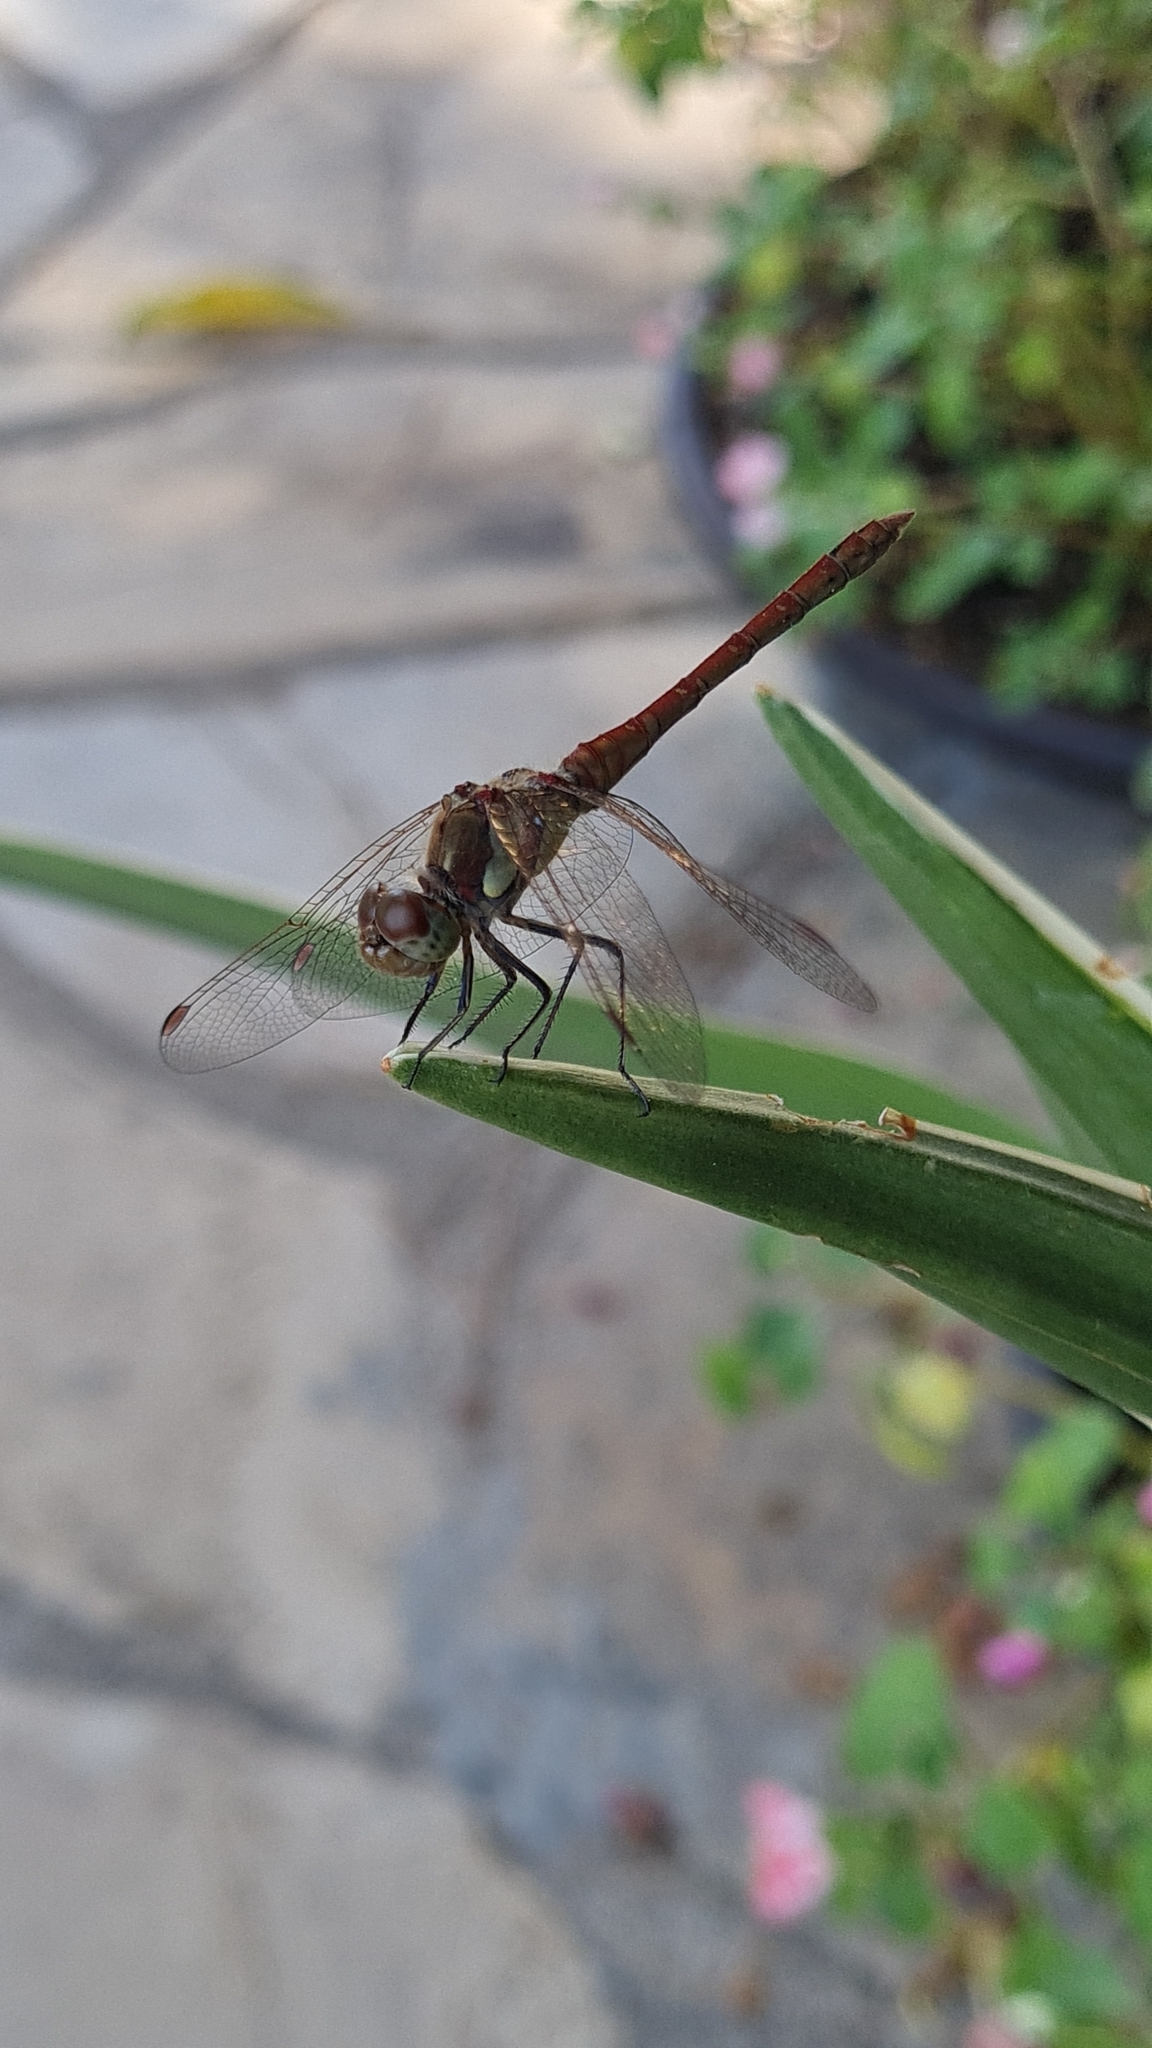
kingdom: Animalia
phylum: Arthropoda
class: Insecta
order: Odonata
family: Libellulidae
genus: Sympetrum
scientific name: Sympetrum striolatum
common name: Common darter
